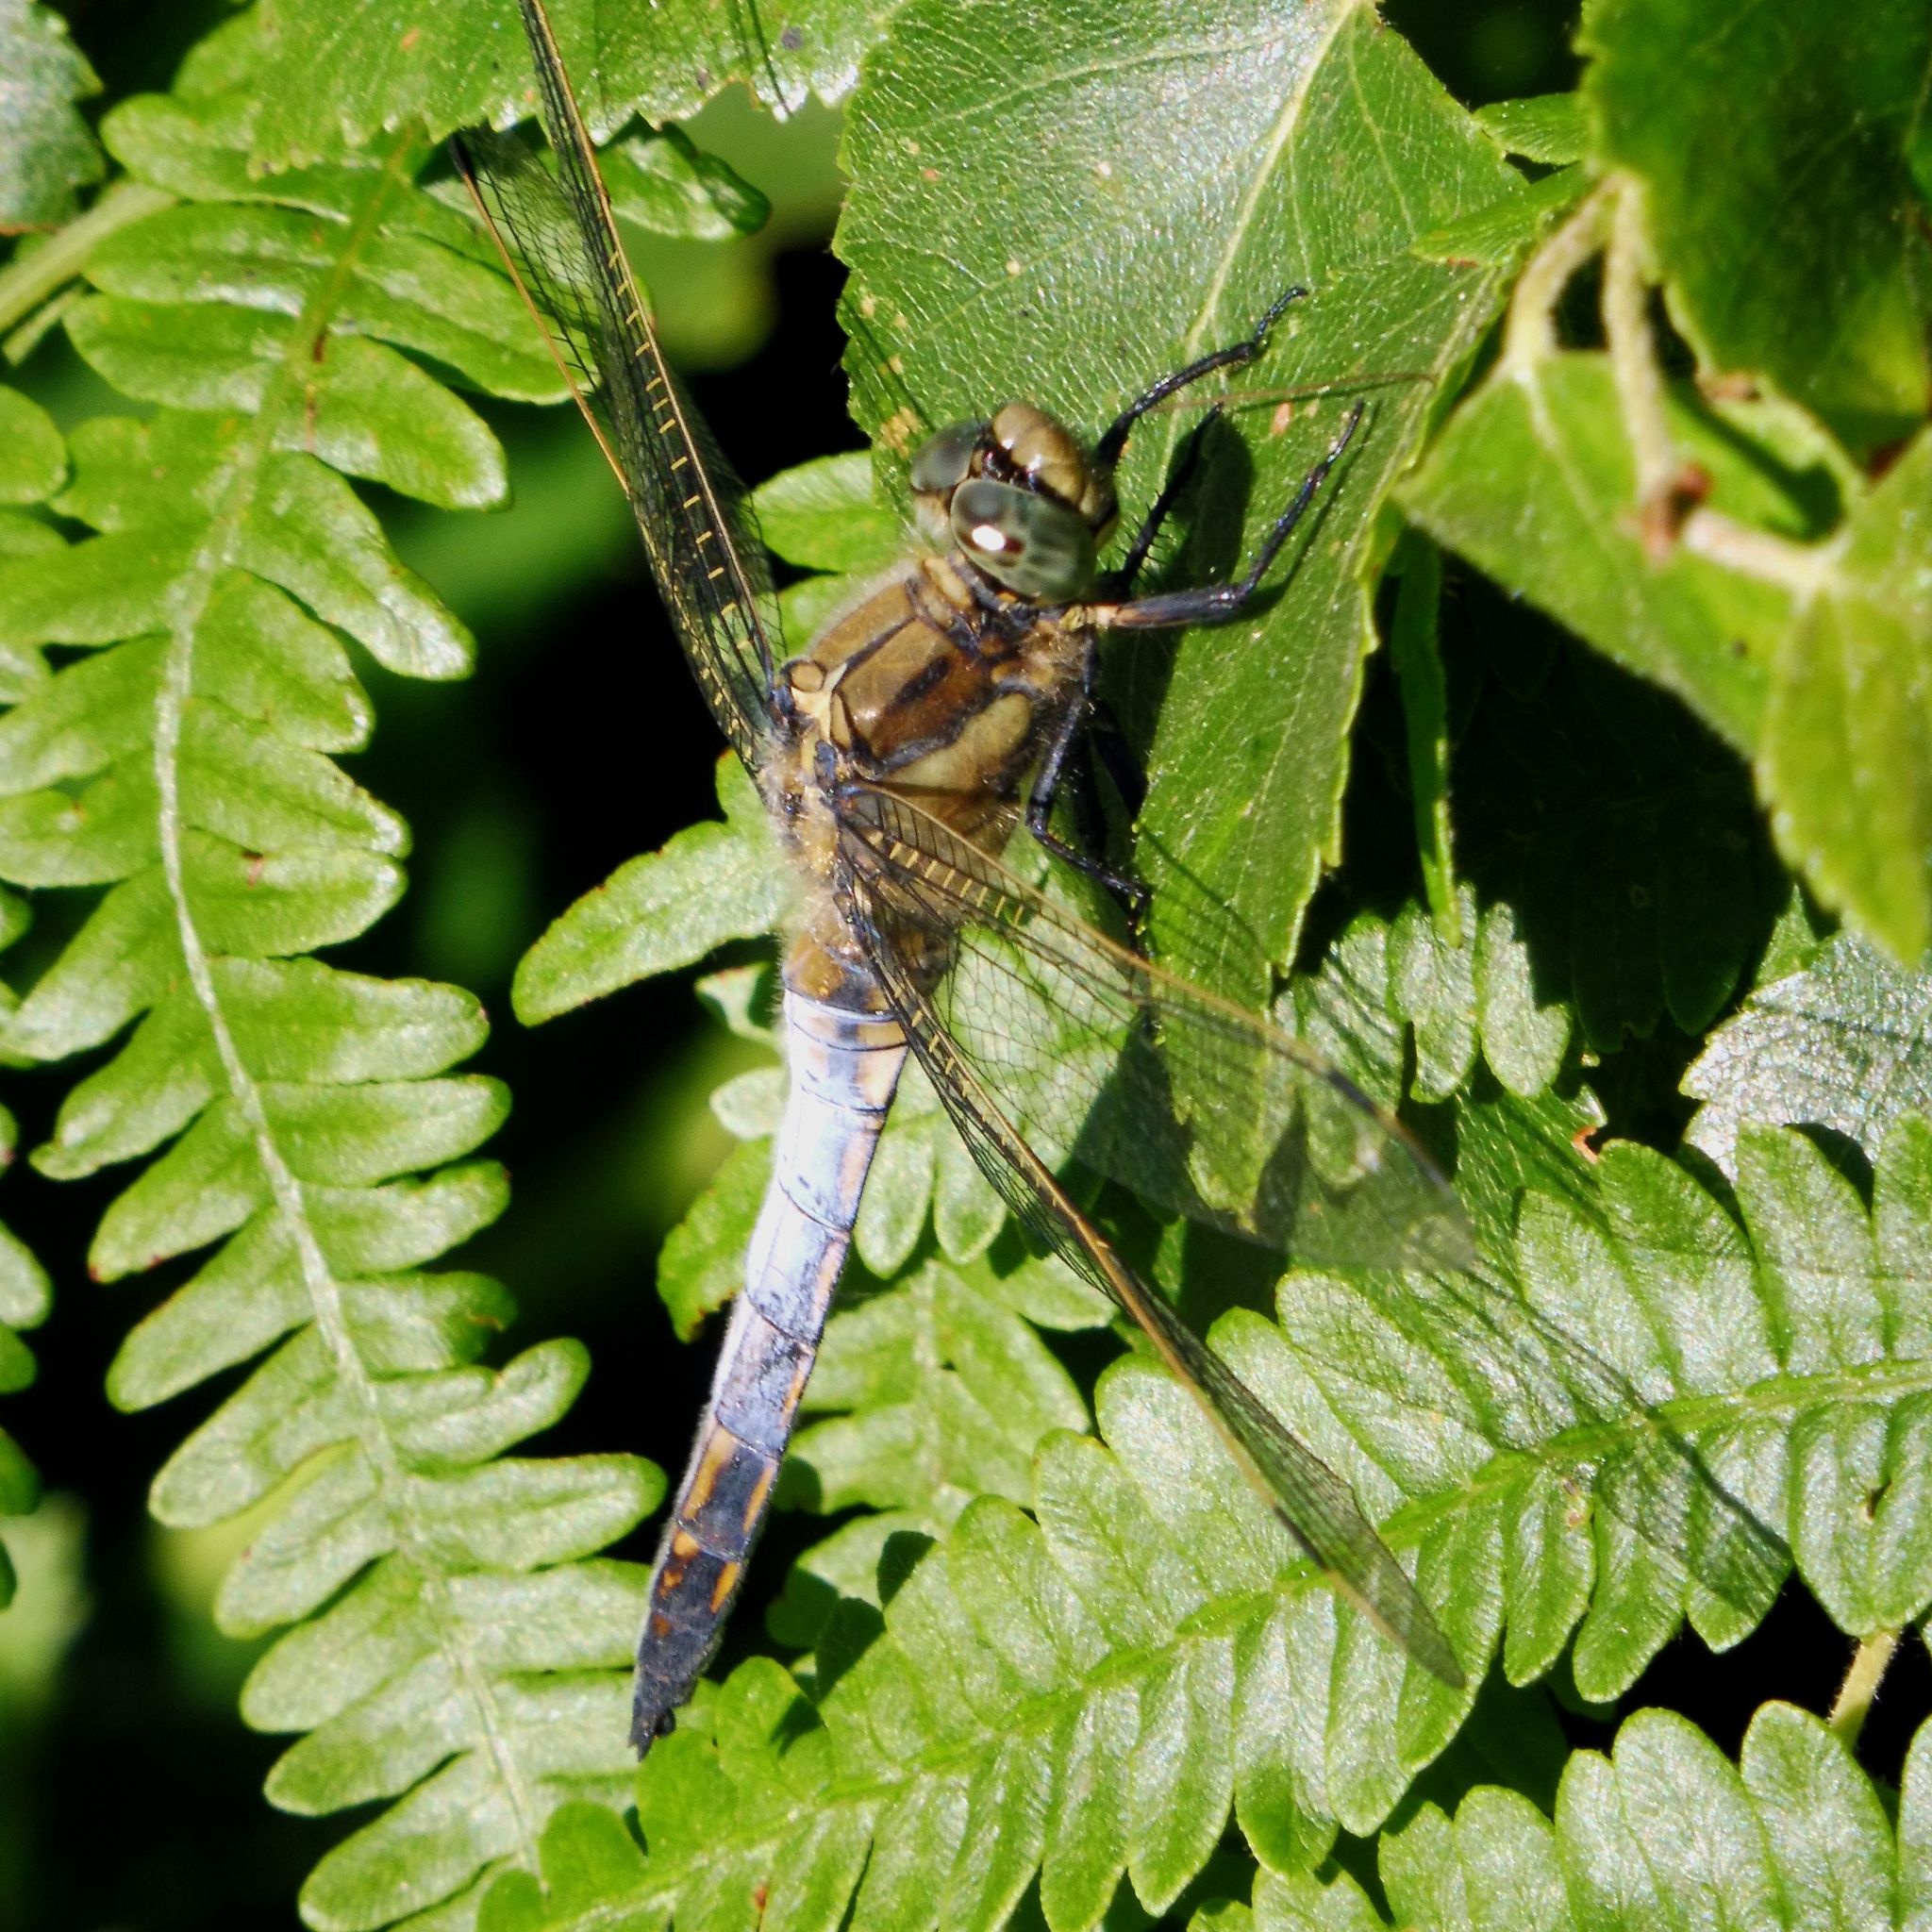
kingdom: Animalia
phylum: Arthropoda
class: Insecta
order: Odonata
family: Libellulidae
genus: Orthetrum
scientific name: Orthetrum cancellatum
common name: Black-tailed skimmer
